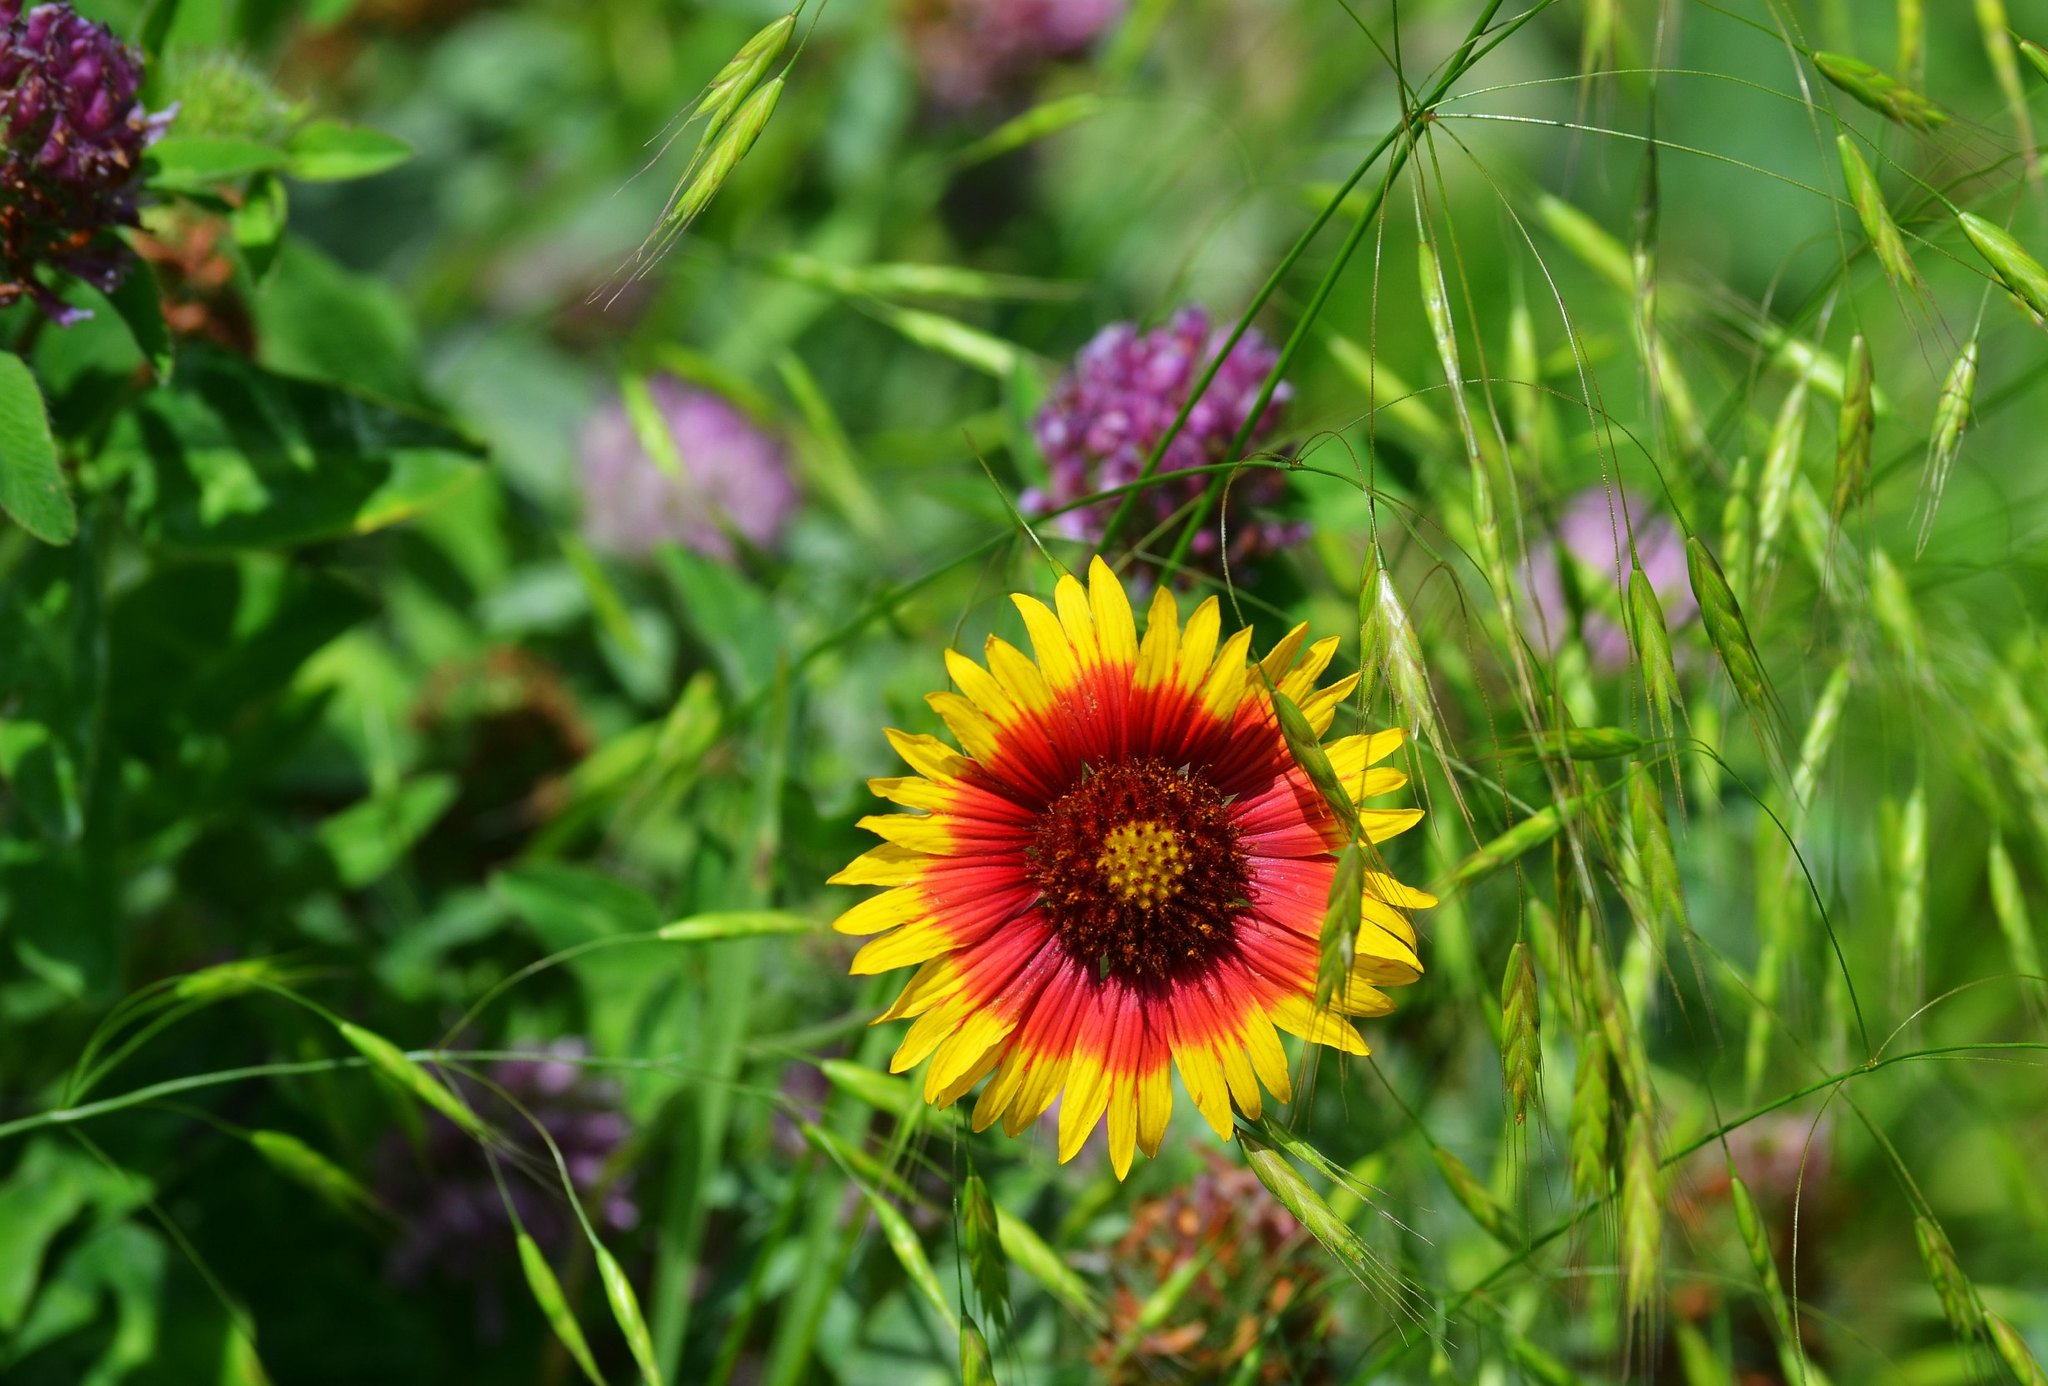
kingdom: Plantae
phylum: Tracheophyta
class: Magnoliopsida
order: Asterales
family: Asteraceae
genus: Gaillardia
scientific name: Gaillardia pulchella
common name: Firewheel
